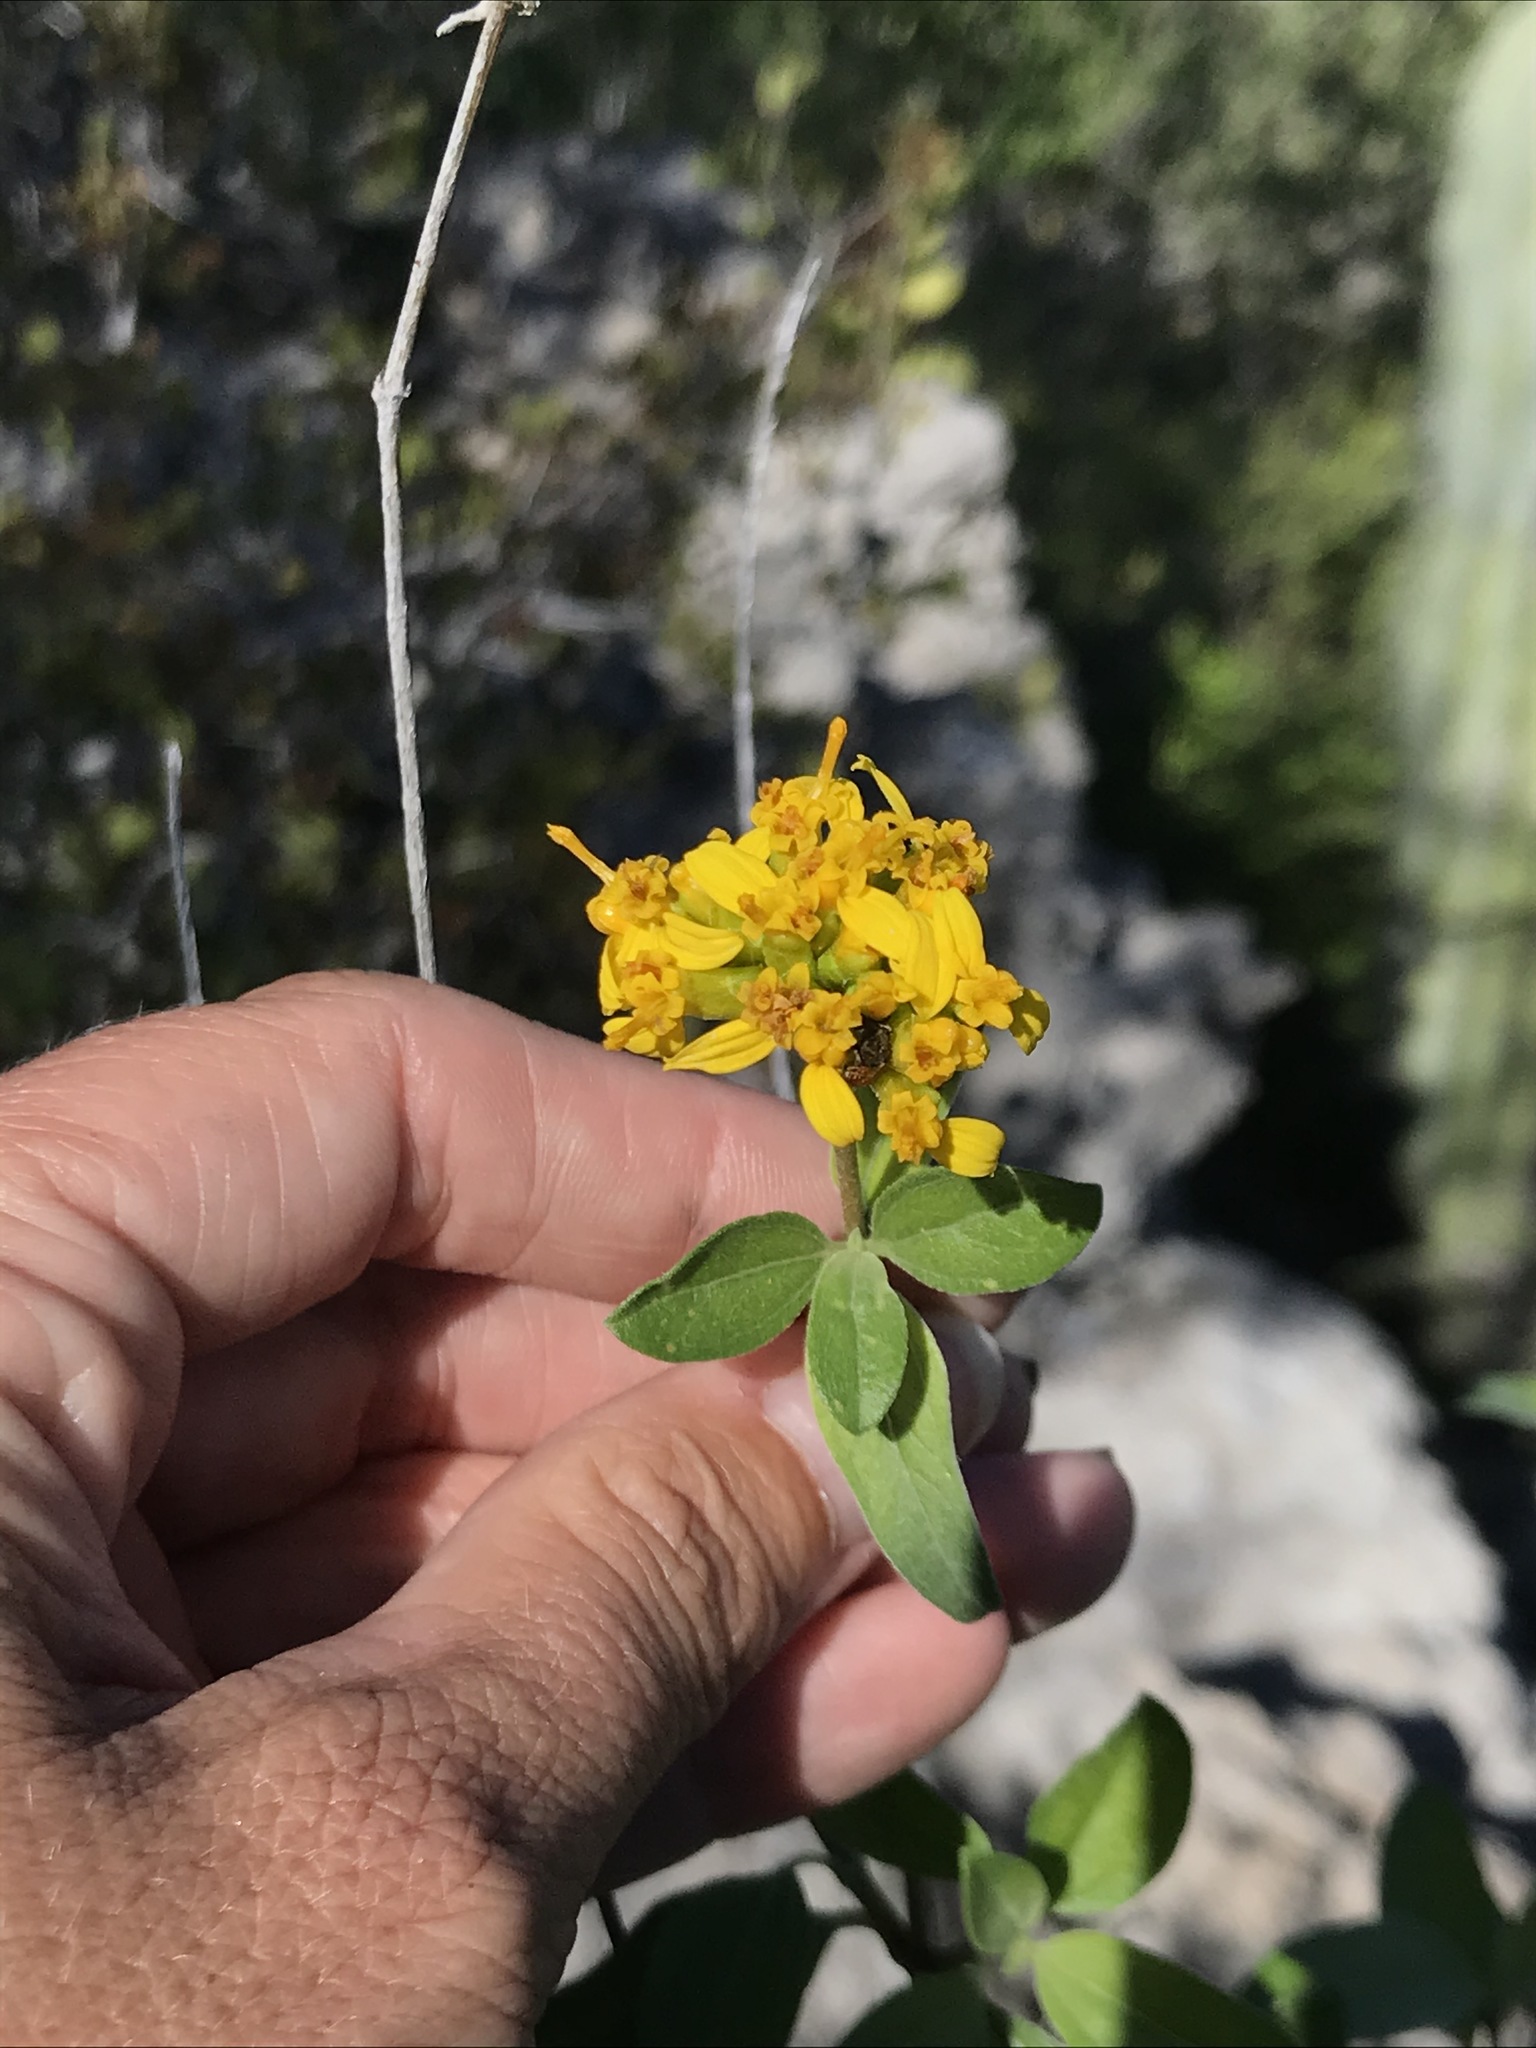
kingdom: Plantae
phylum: Tracheophyta
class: Magnoliopsida
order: Asterales
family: Asteraceae
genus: Aldama
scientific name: Aldama glomerata
